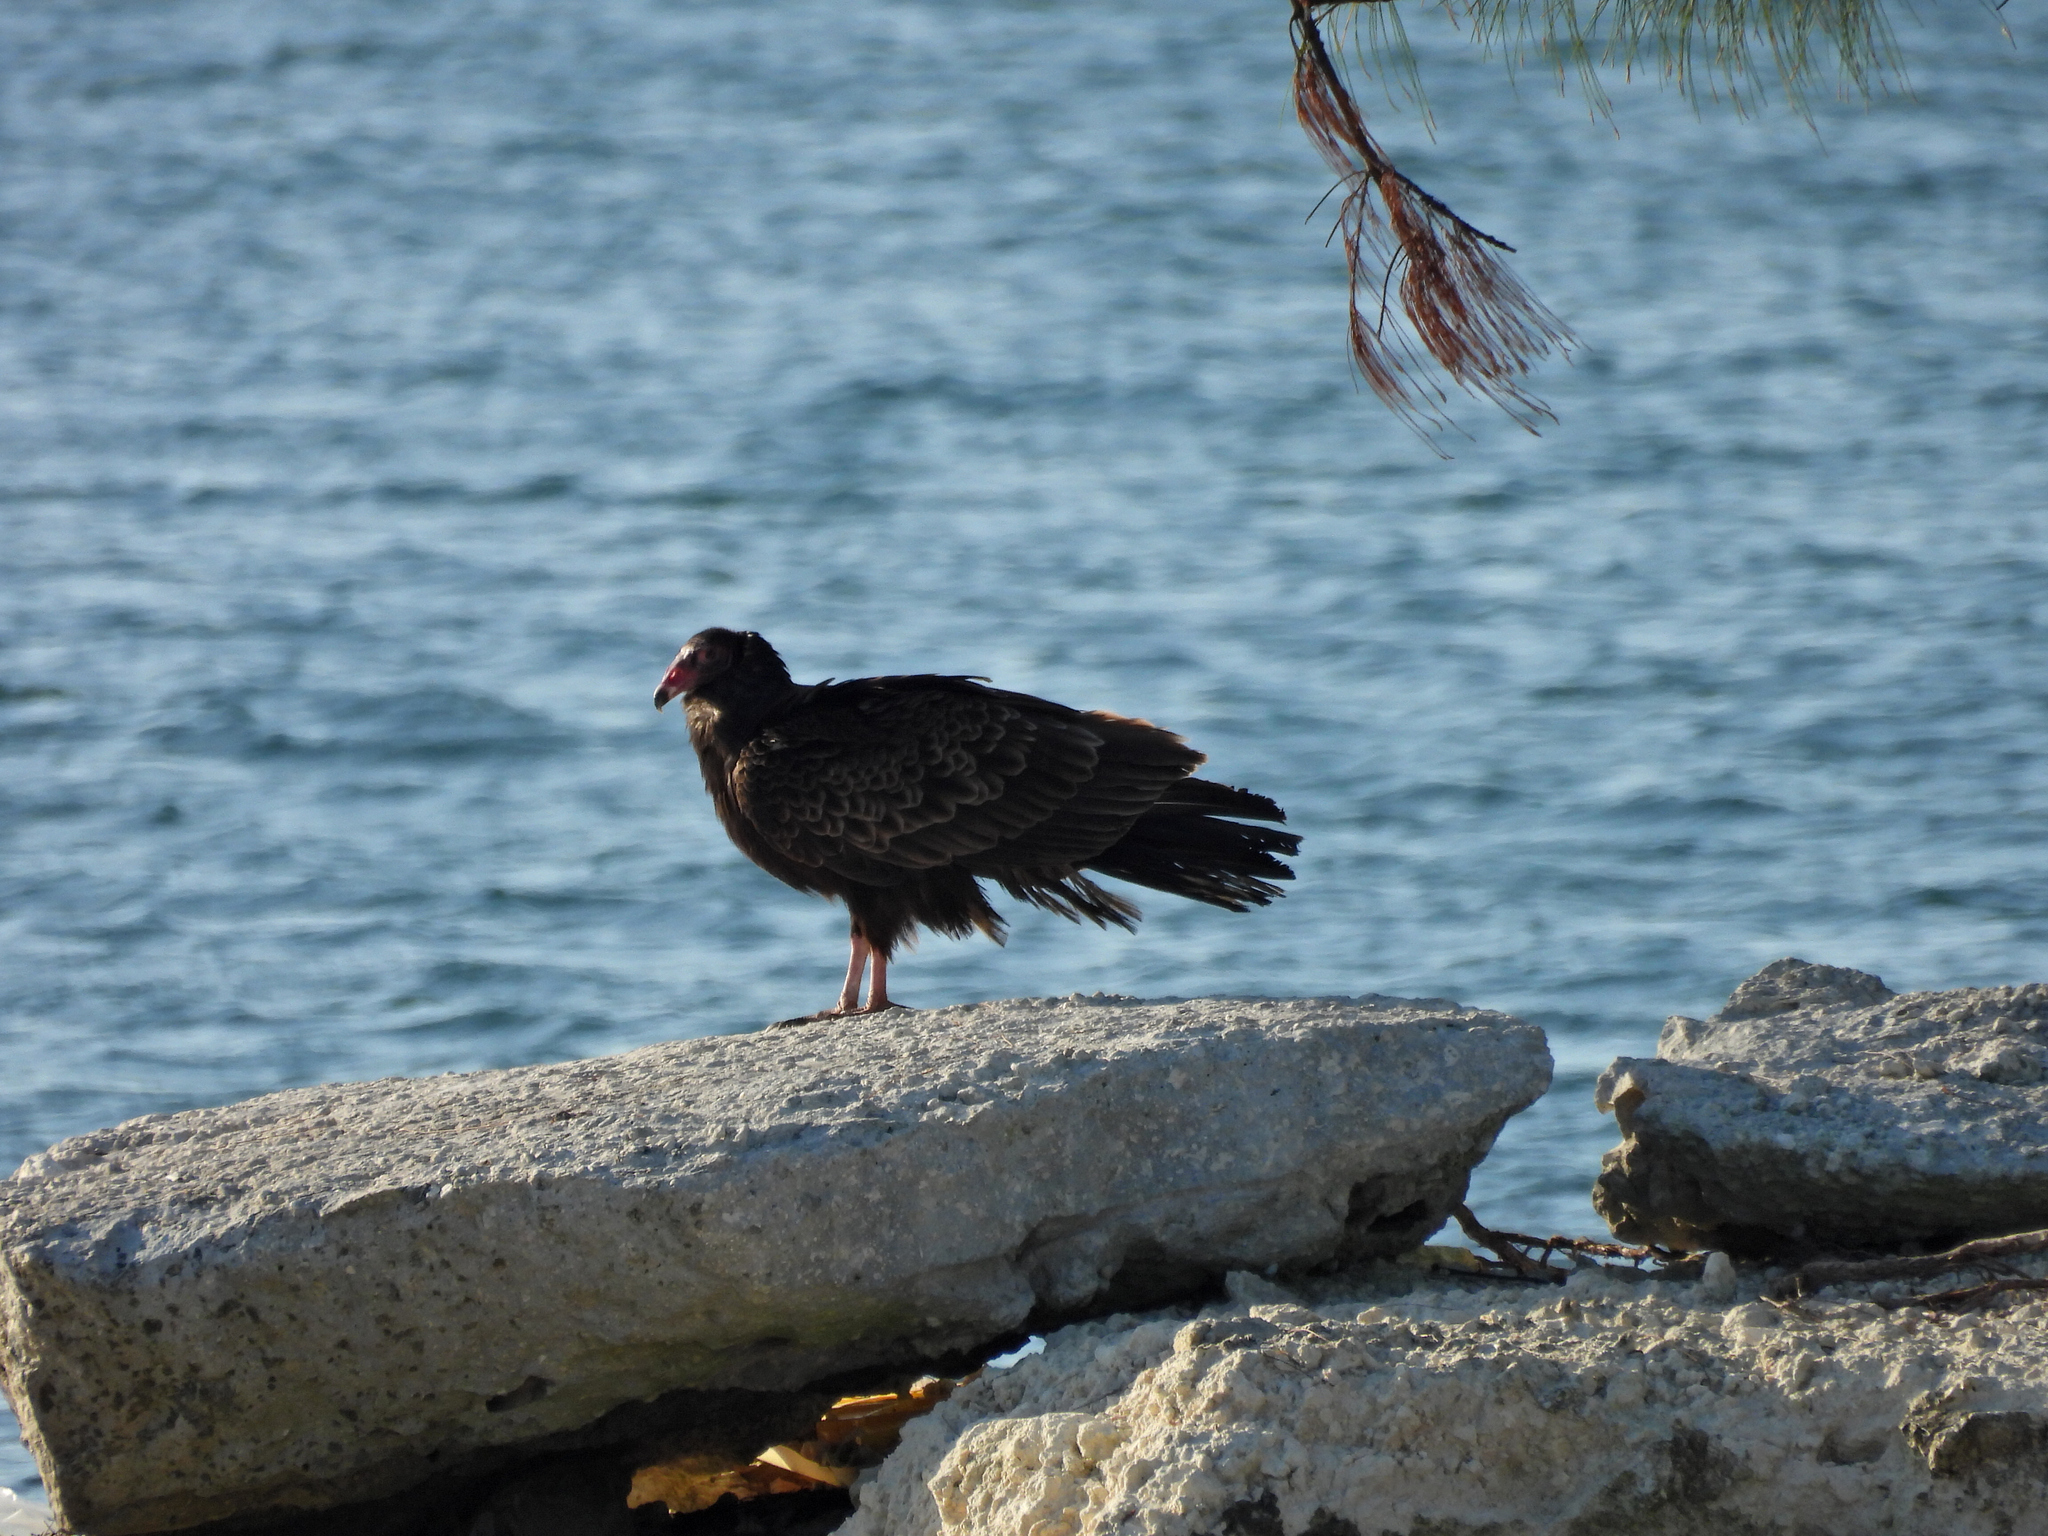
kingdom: Animalia
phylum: Chordata
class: Aves
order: Accipitriformes
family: Cathartidae
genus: Cathartes
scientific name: Cathartes aura
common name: Turkey vulture
